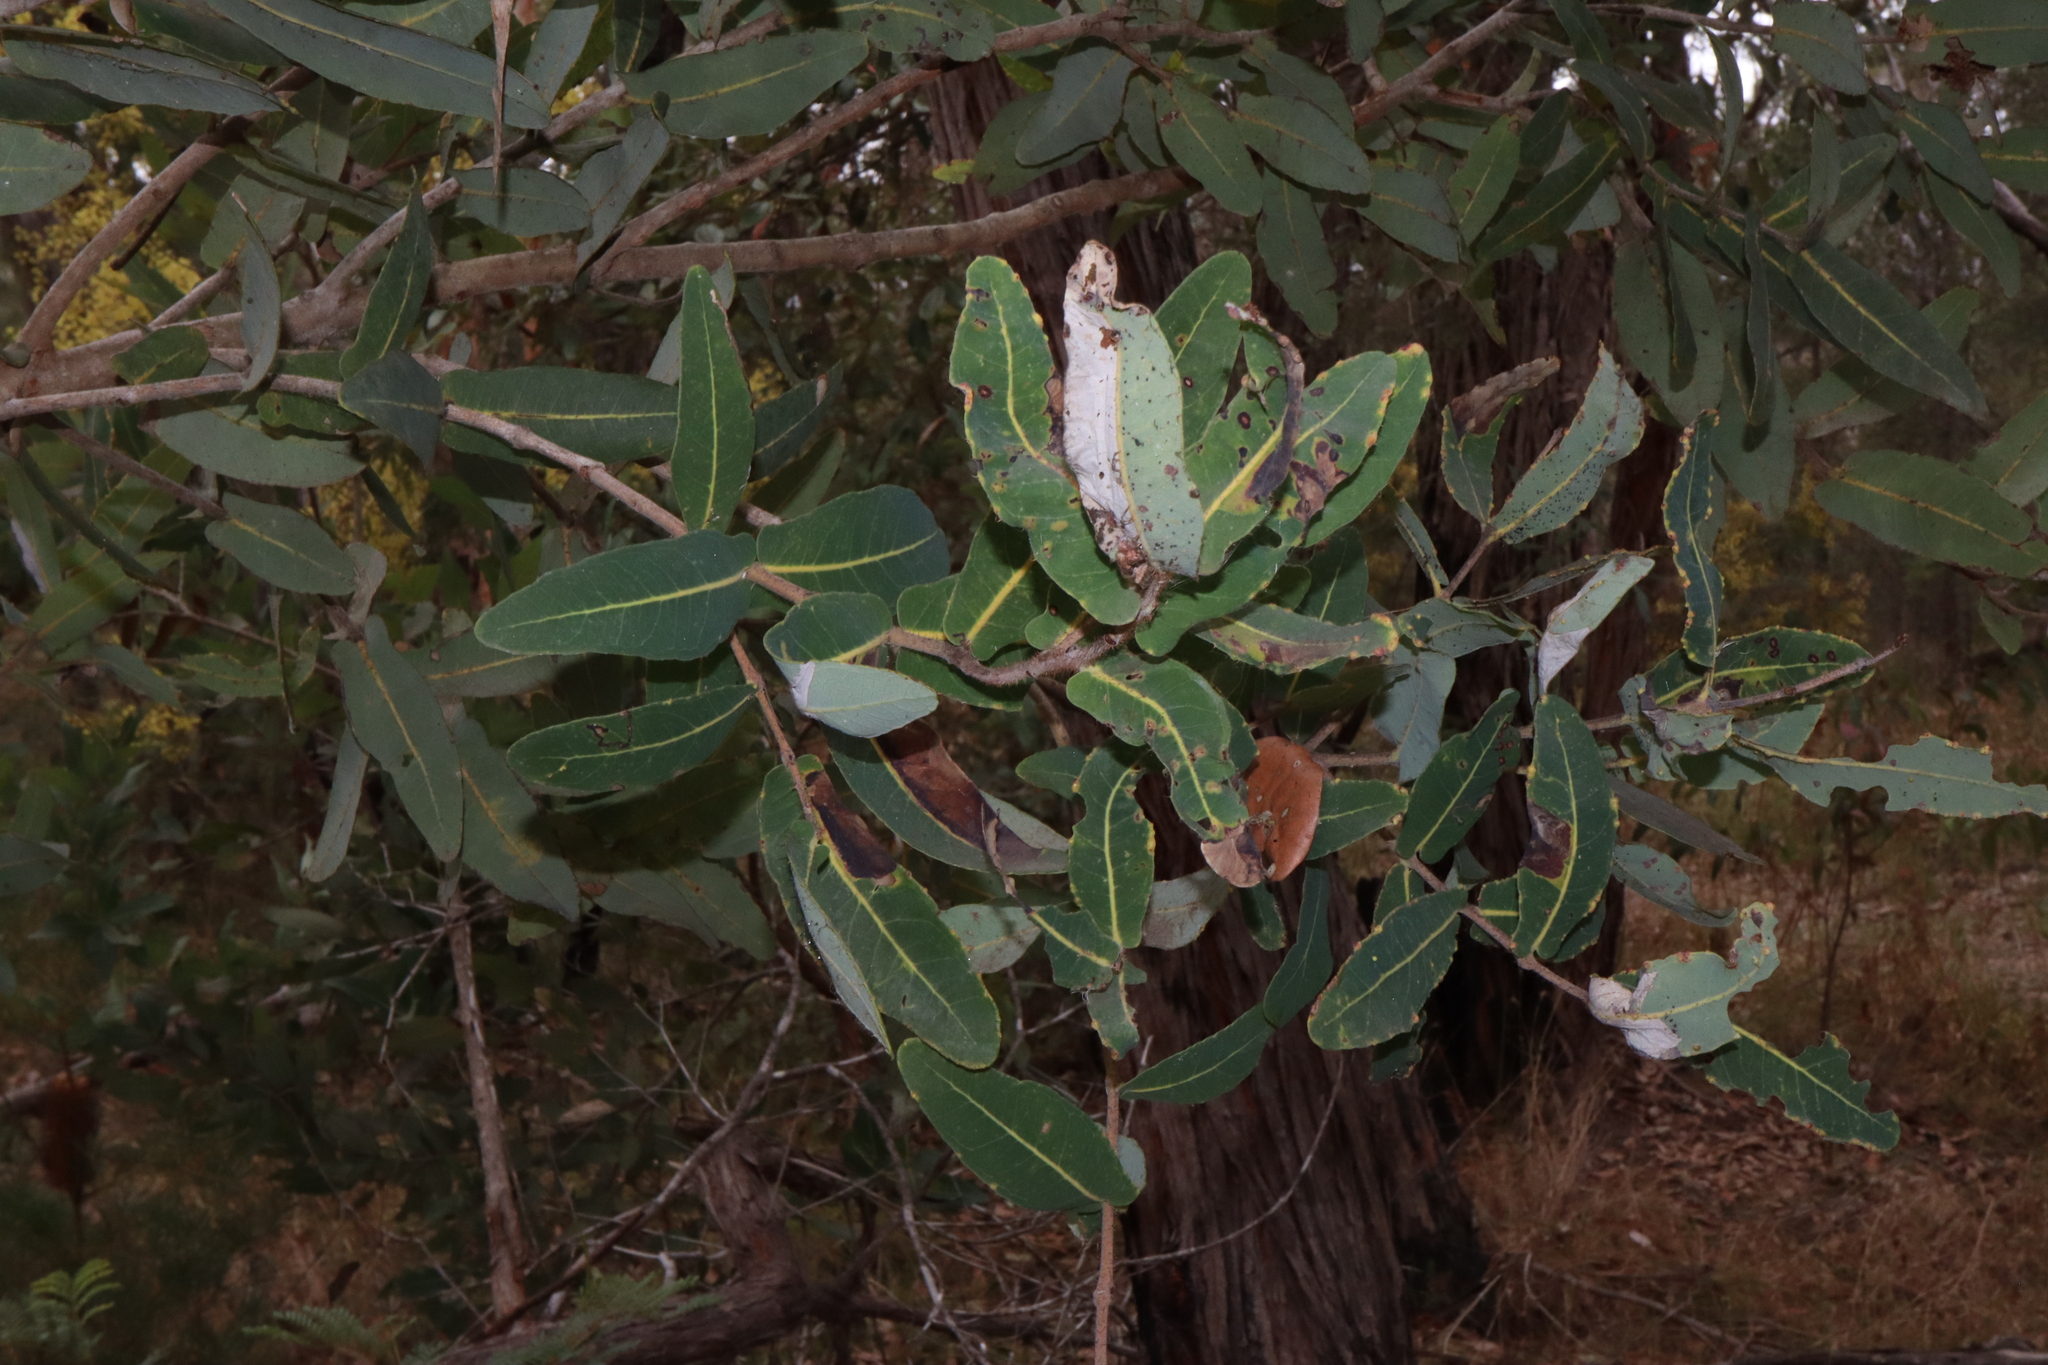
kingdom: Plantae
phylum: Tracheophyta
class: Magnoliopsida
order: Myrtales
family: Myrtaceae
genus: Angophora
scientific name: Angophora hispida
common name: Dwarf-apple
